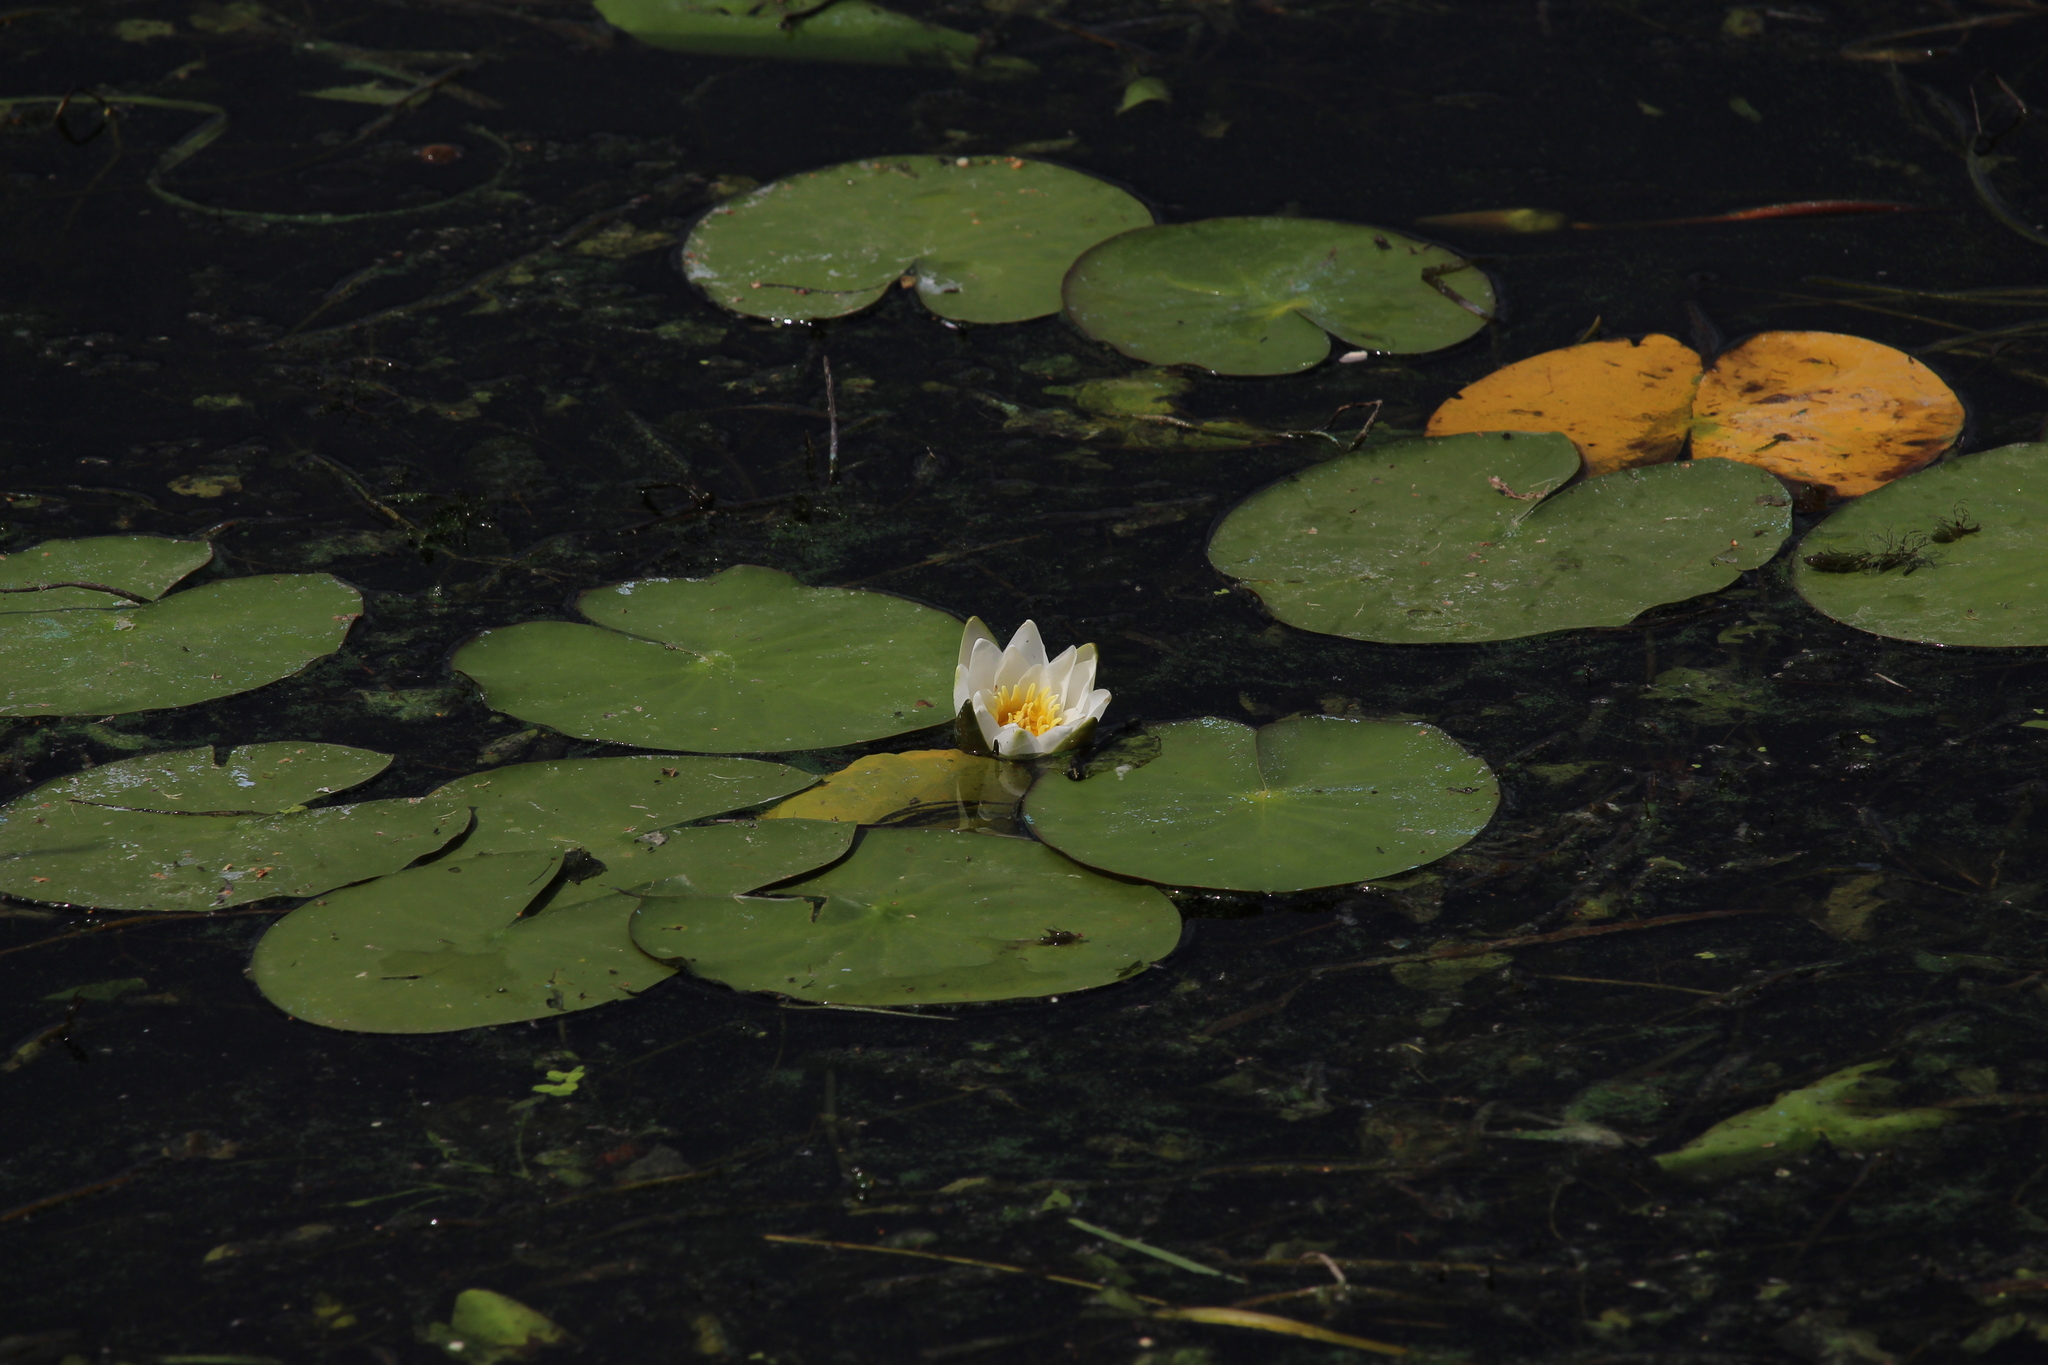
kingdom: Plantae
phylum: Tracheophyta
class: Magnoliopsida
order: Nymphaeales
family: Nymphaeaceae
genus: Nymphaea
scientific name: Nymphaea candida
